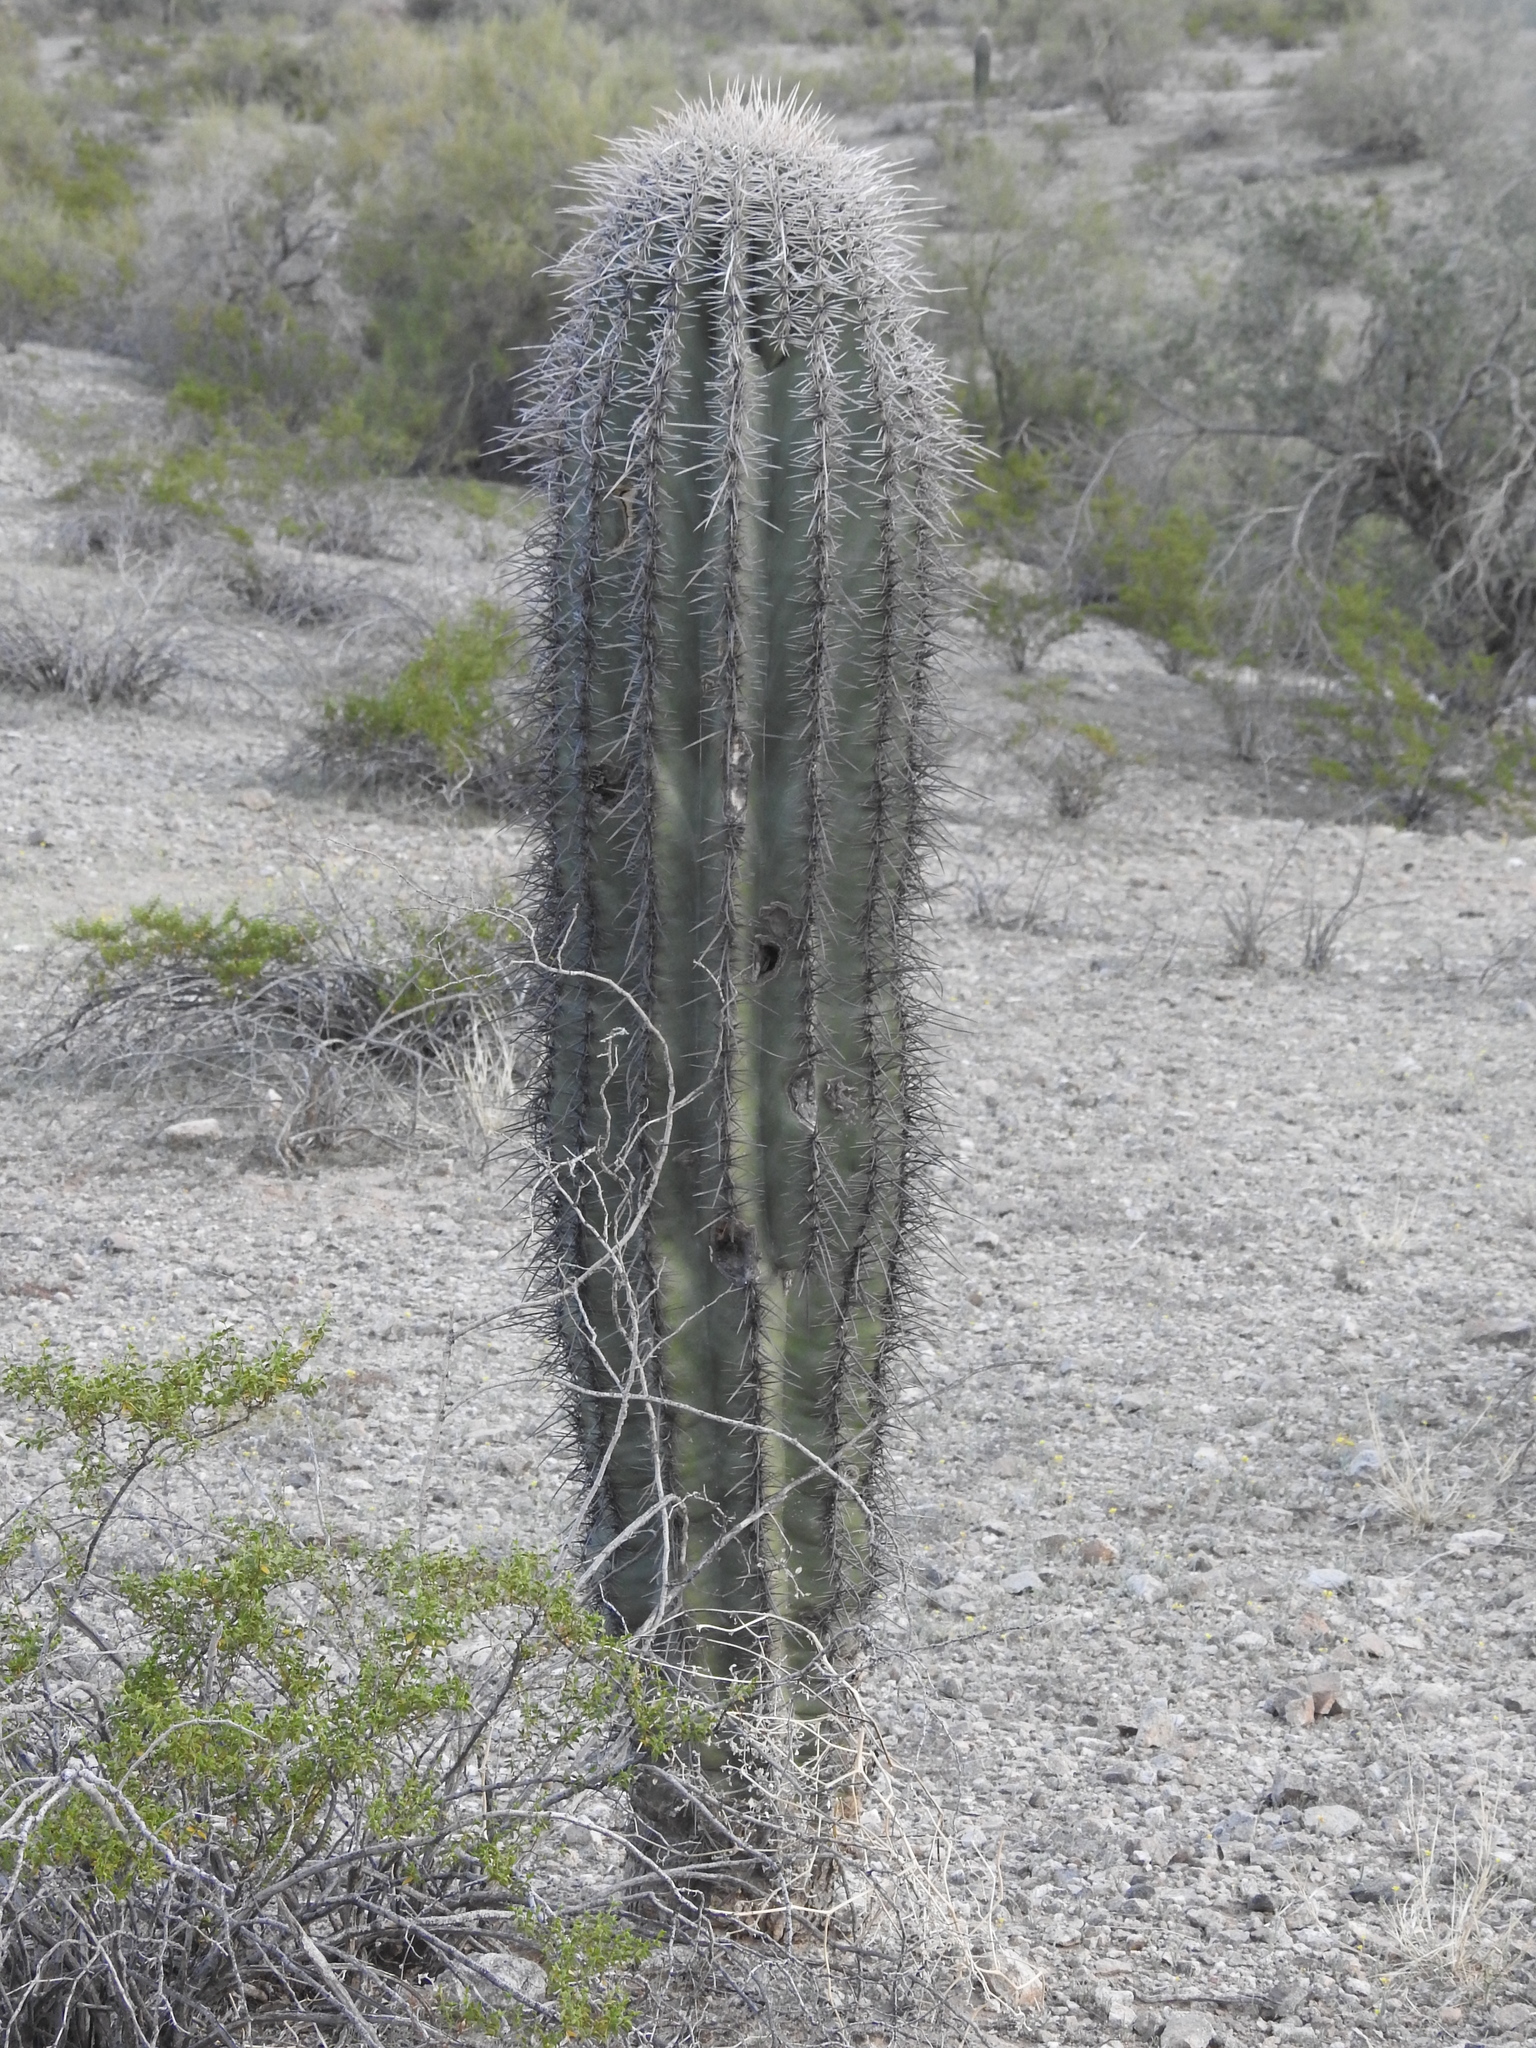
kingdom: Plantae
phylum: Tracheophyta
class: Magnoliopsida
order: Caryophyllales
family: Cactaceae
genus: Carnegiea
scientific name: Carnegiea gigantea
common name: Saguaro
